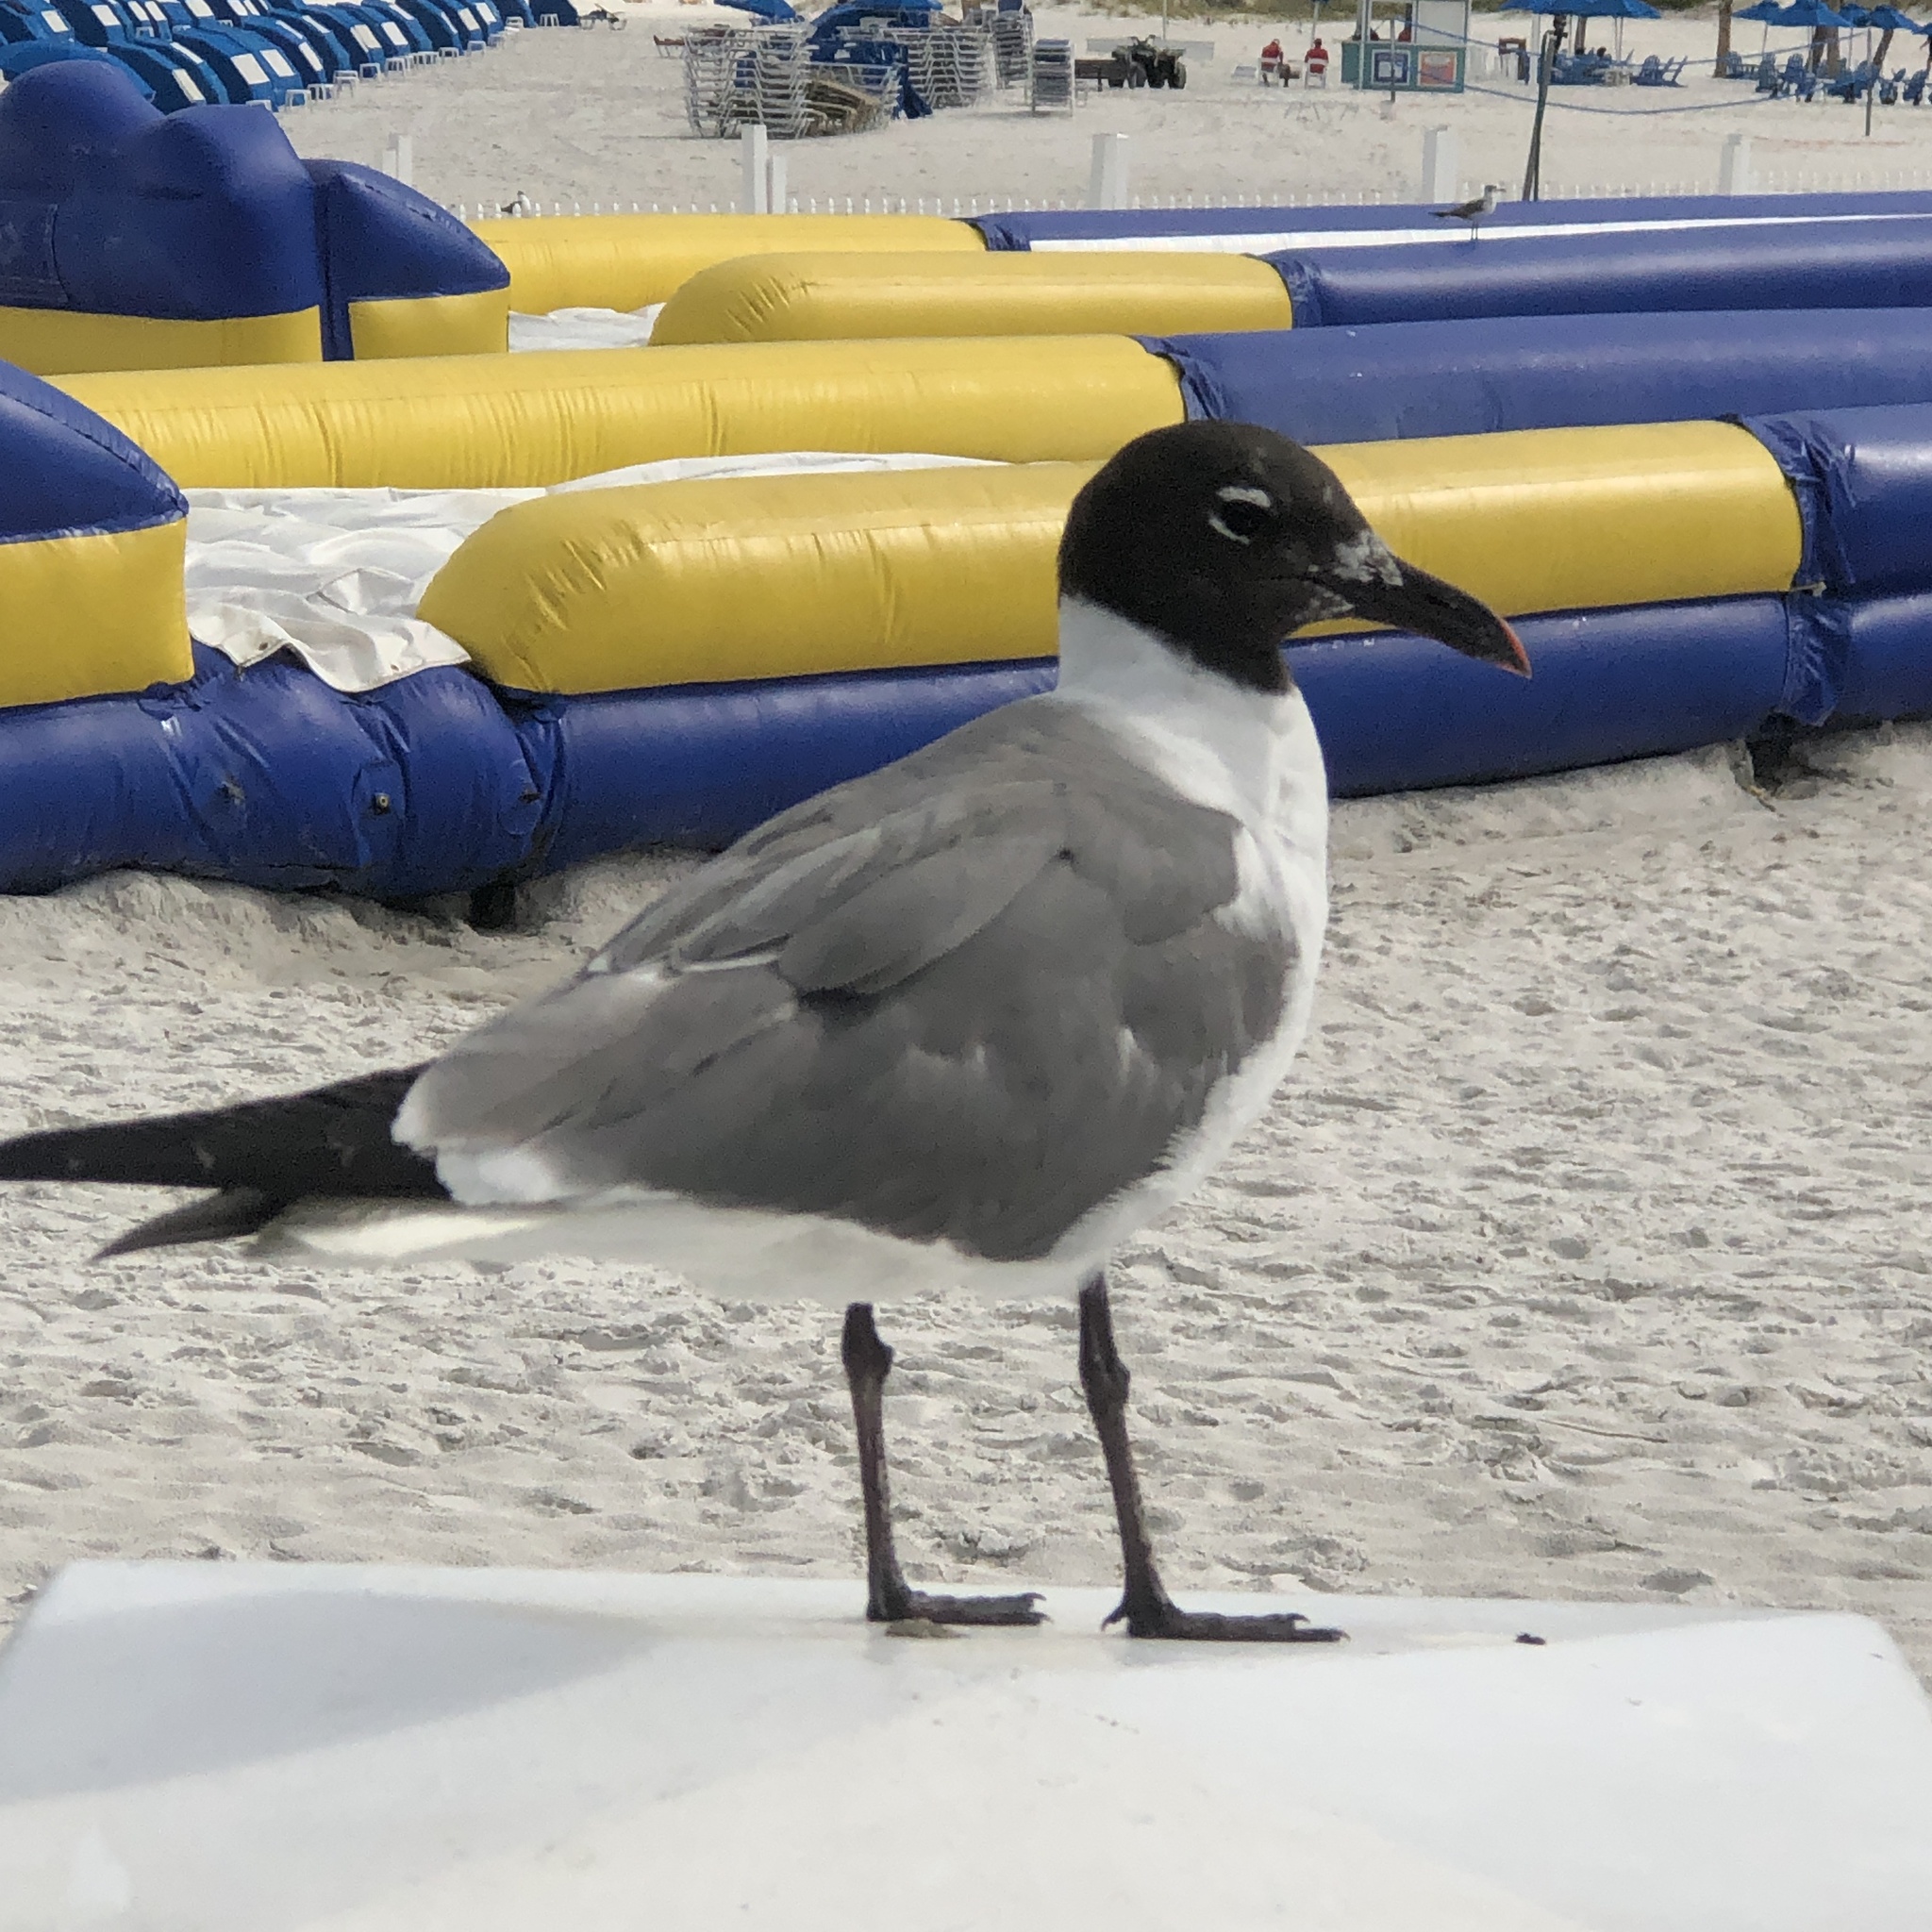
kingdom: Animalia
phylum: Chordata
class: Aves
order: Charadriiformes
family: Laridae
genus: Leucophaeus
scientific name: Leucophaeus atricilla
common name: Laughing gull
